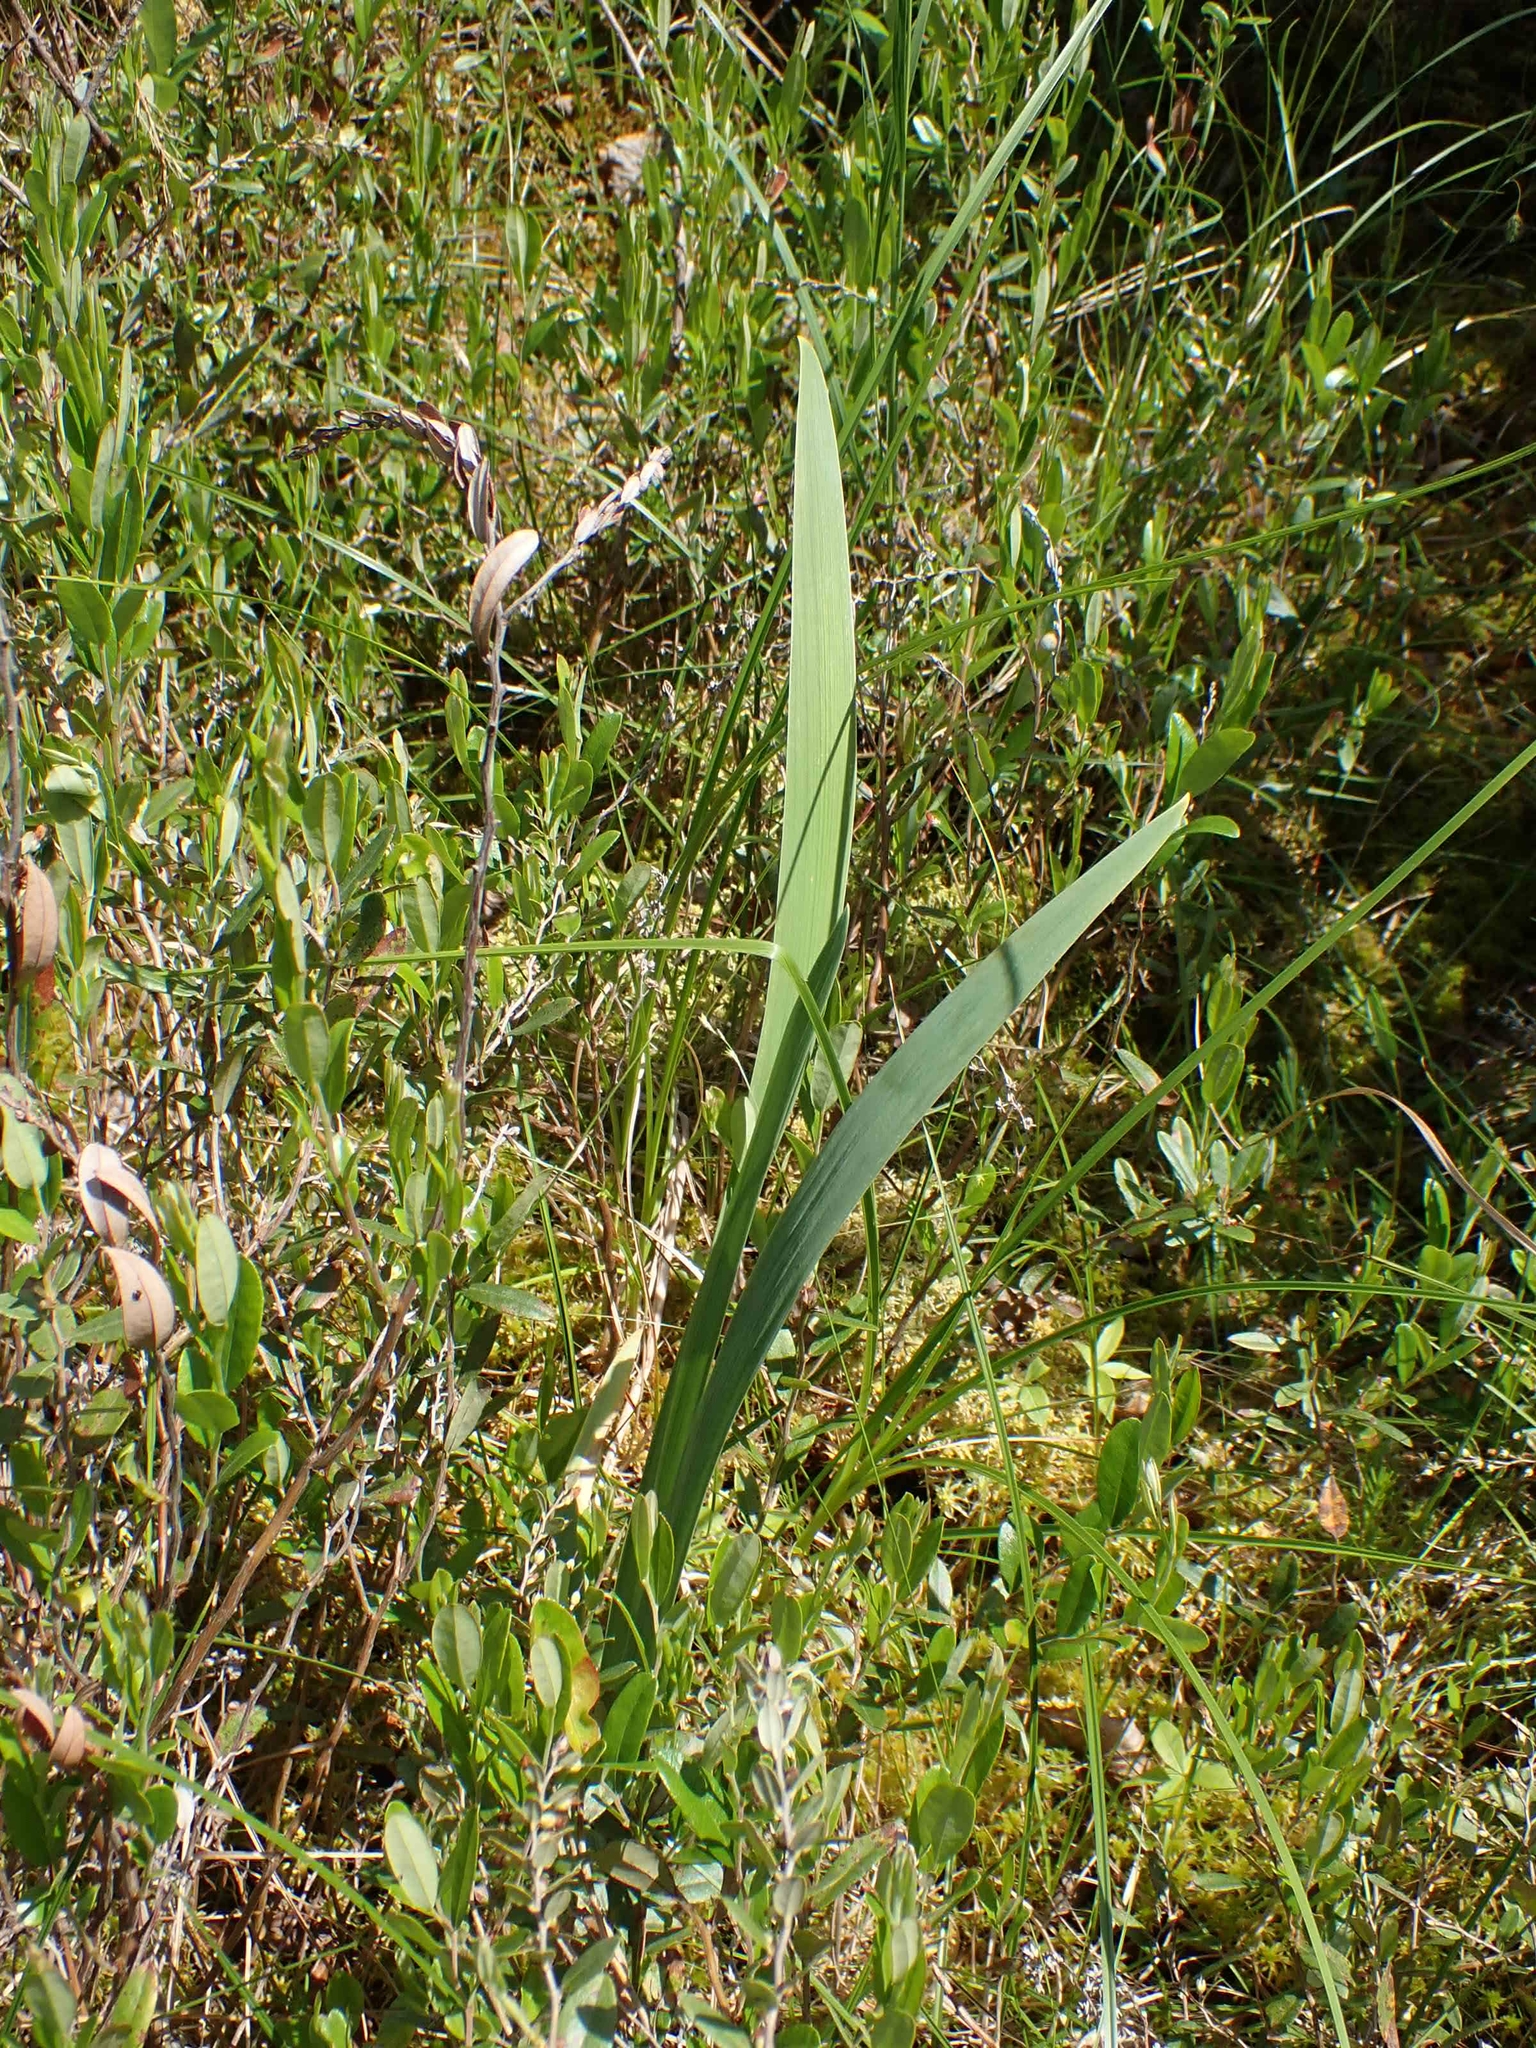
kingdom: Plantae
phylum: Tracheophyta
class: Liliopsida
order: Asparagales
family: Iridaceae
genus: Iris
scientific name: Iris versicolor
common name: Purple iris
